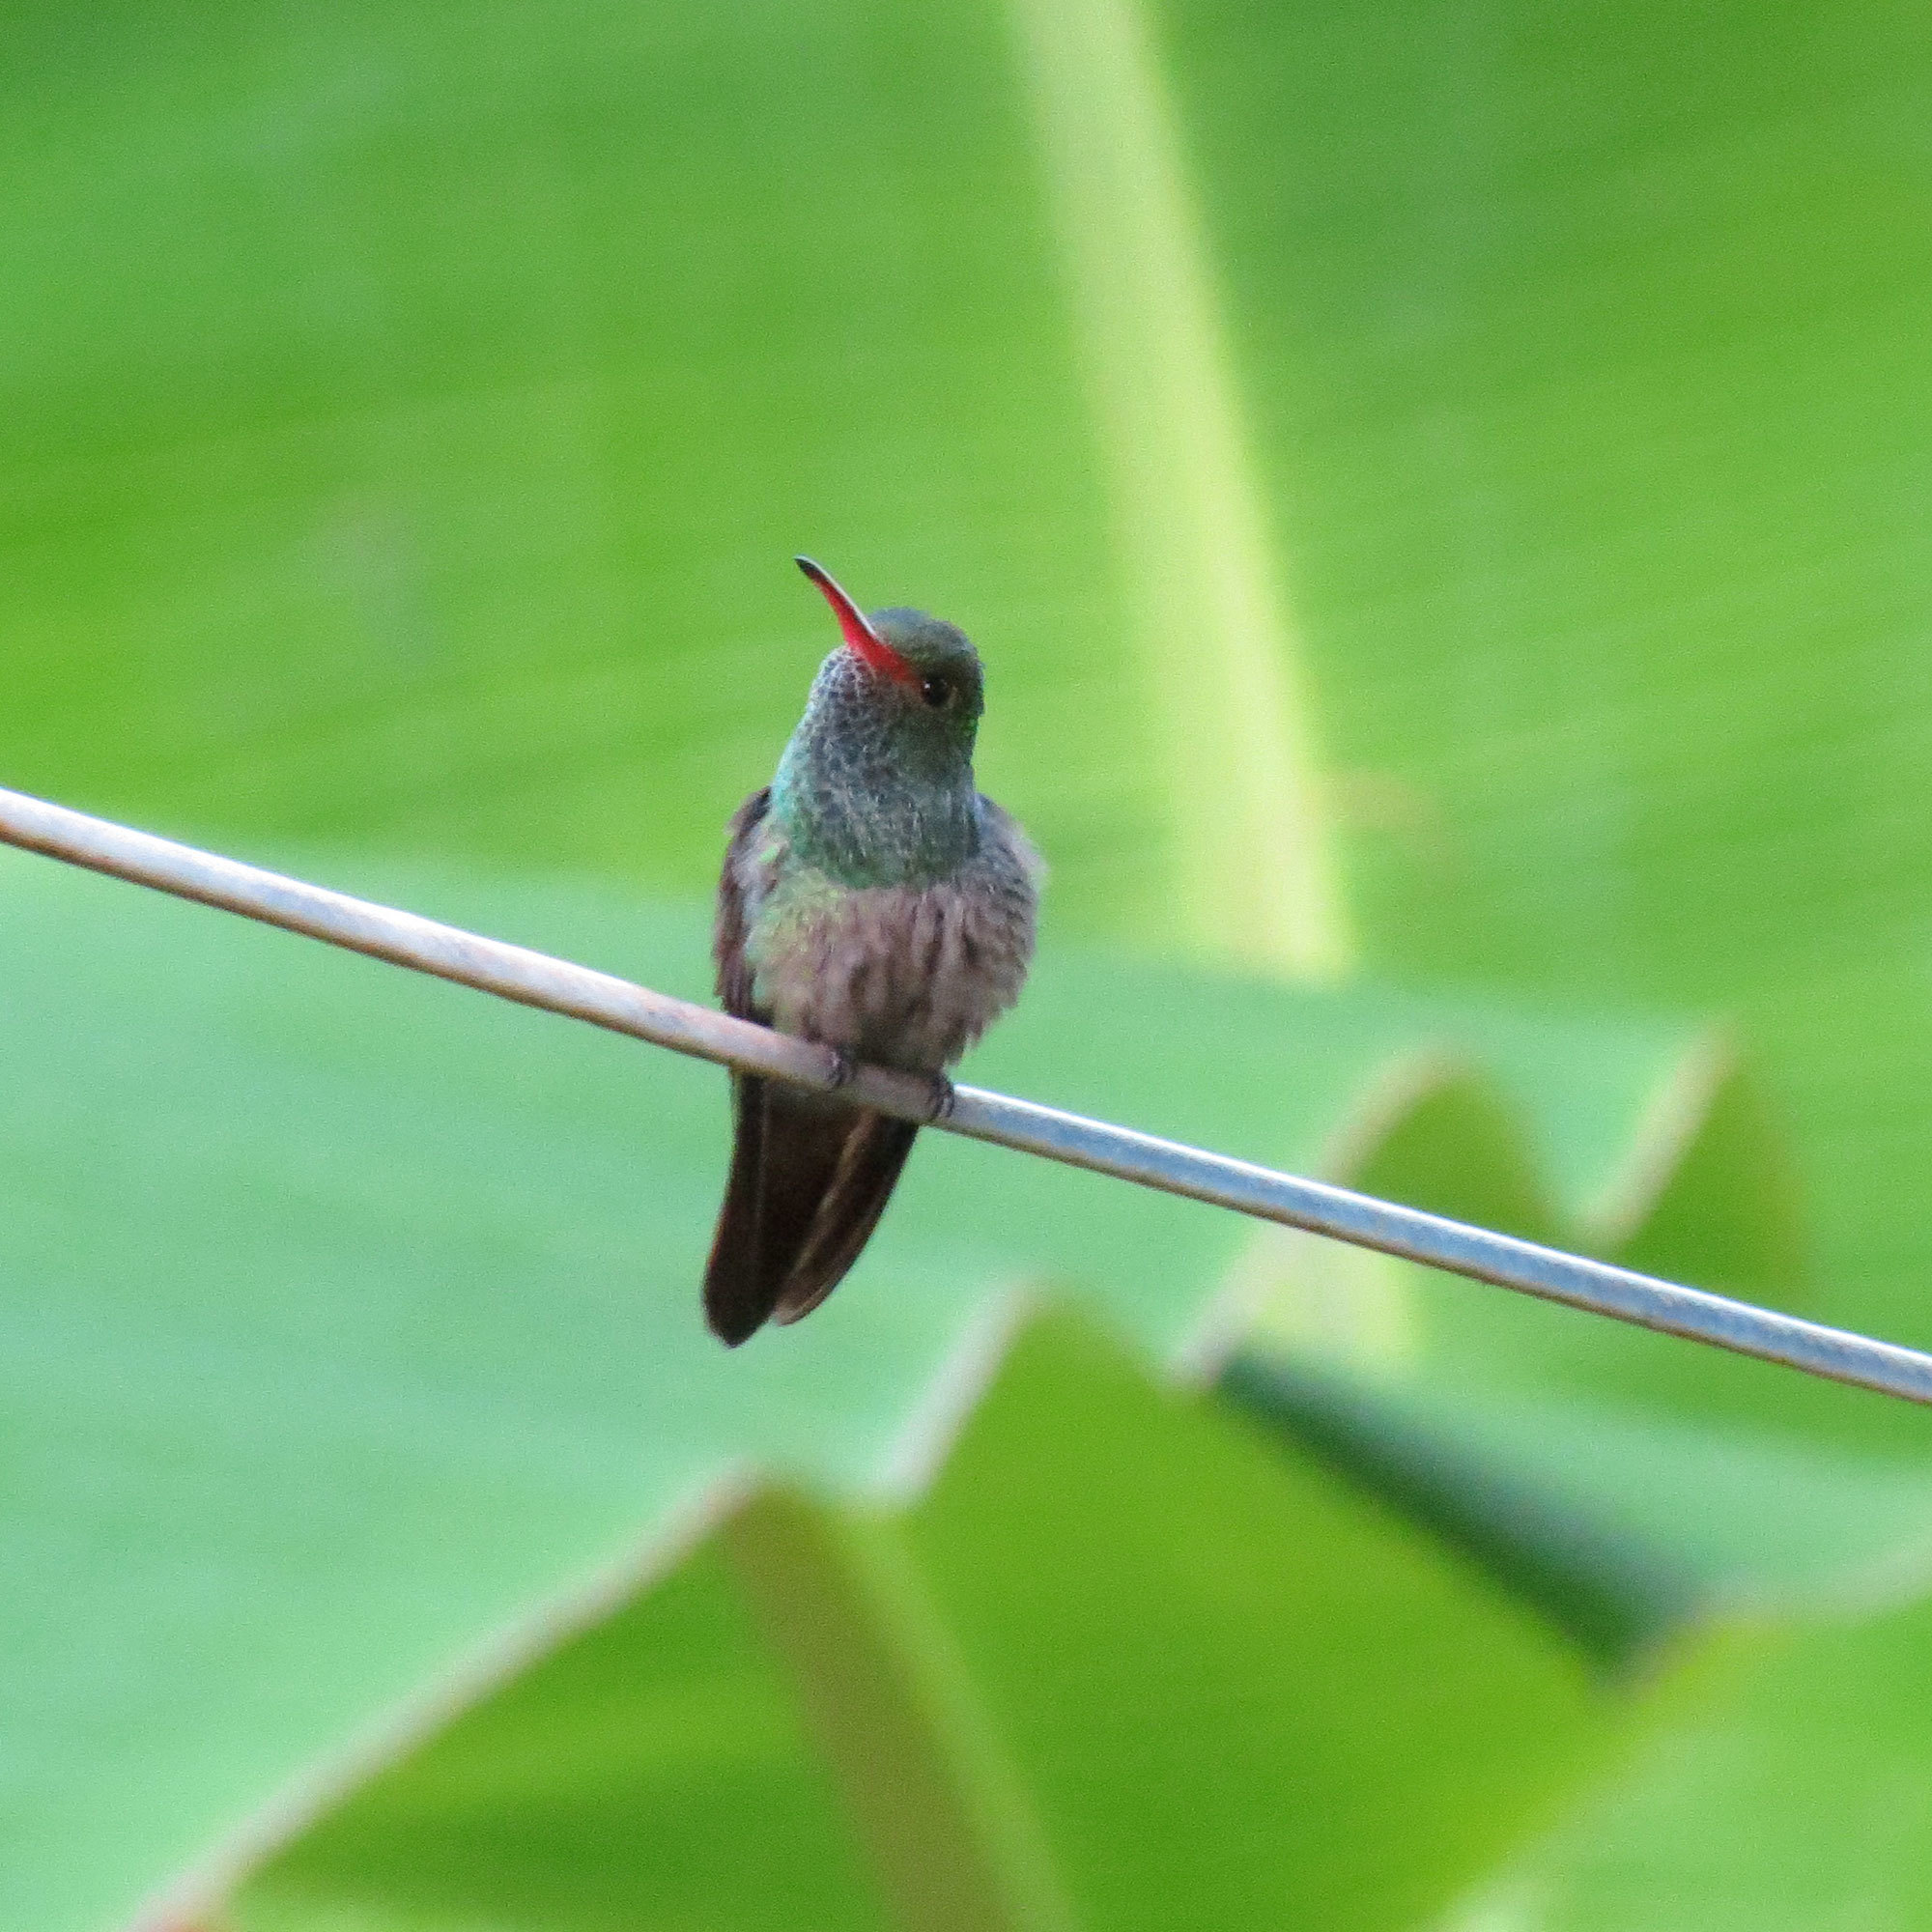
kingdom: Animalia
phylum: Chordata
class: Aves
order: Apodiformes
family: Trochilidae
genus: Amazilia
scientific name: Amazilia tzacatl
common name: Rufous-tailed hummingbird
